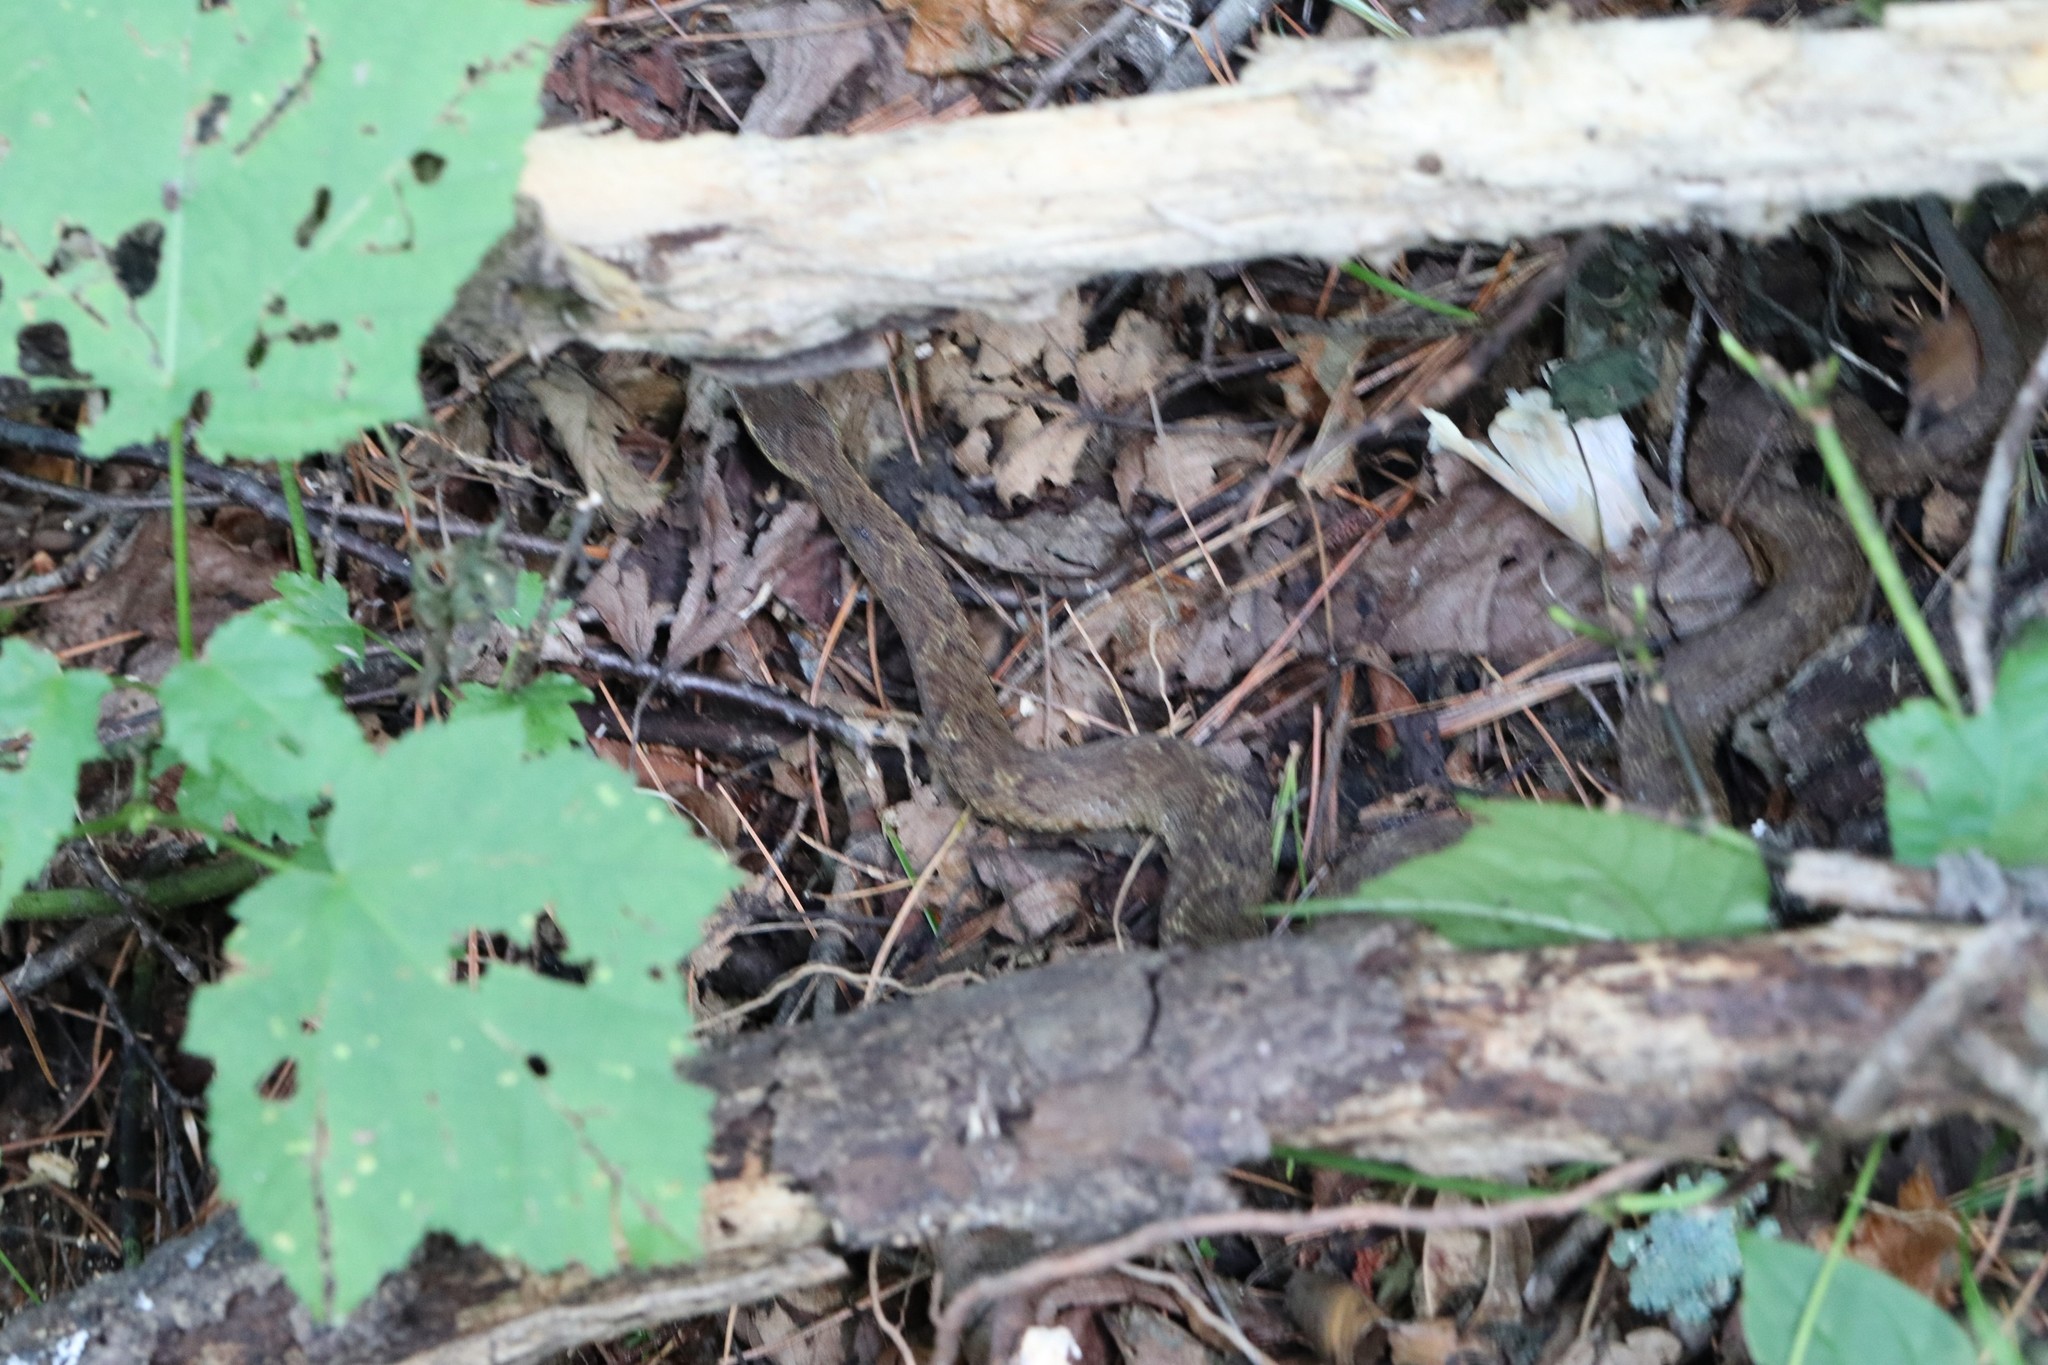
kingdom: Animalia
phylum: Chordata
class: Squamata
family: Viperidae
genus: Gloydius
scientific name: Gloydius ussuriensis
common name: Ussuri mamushi
